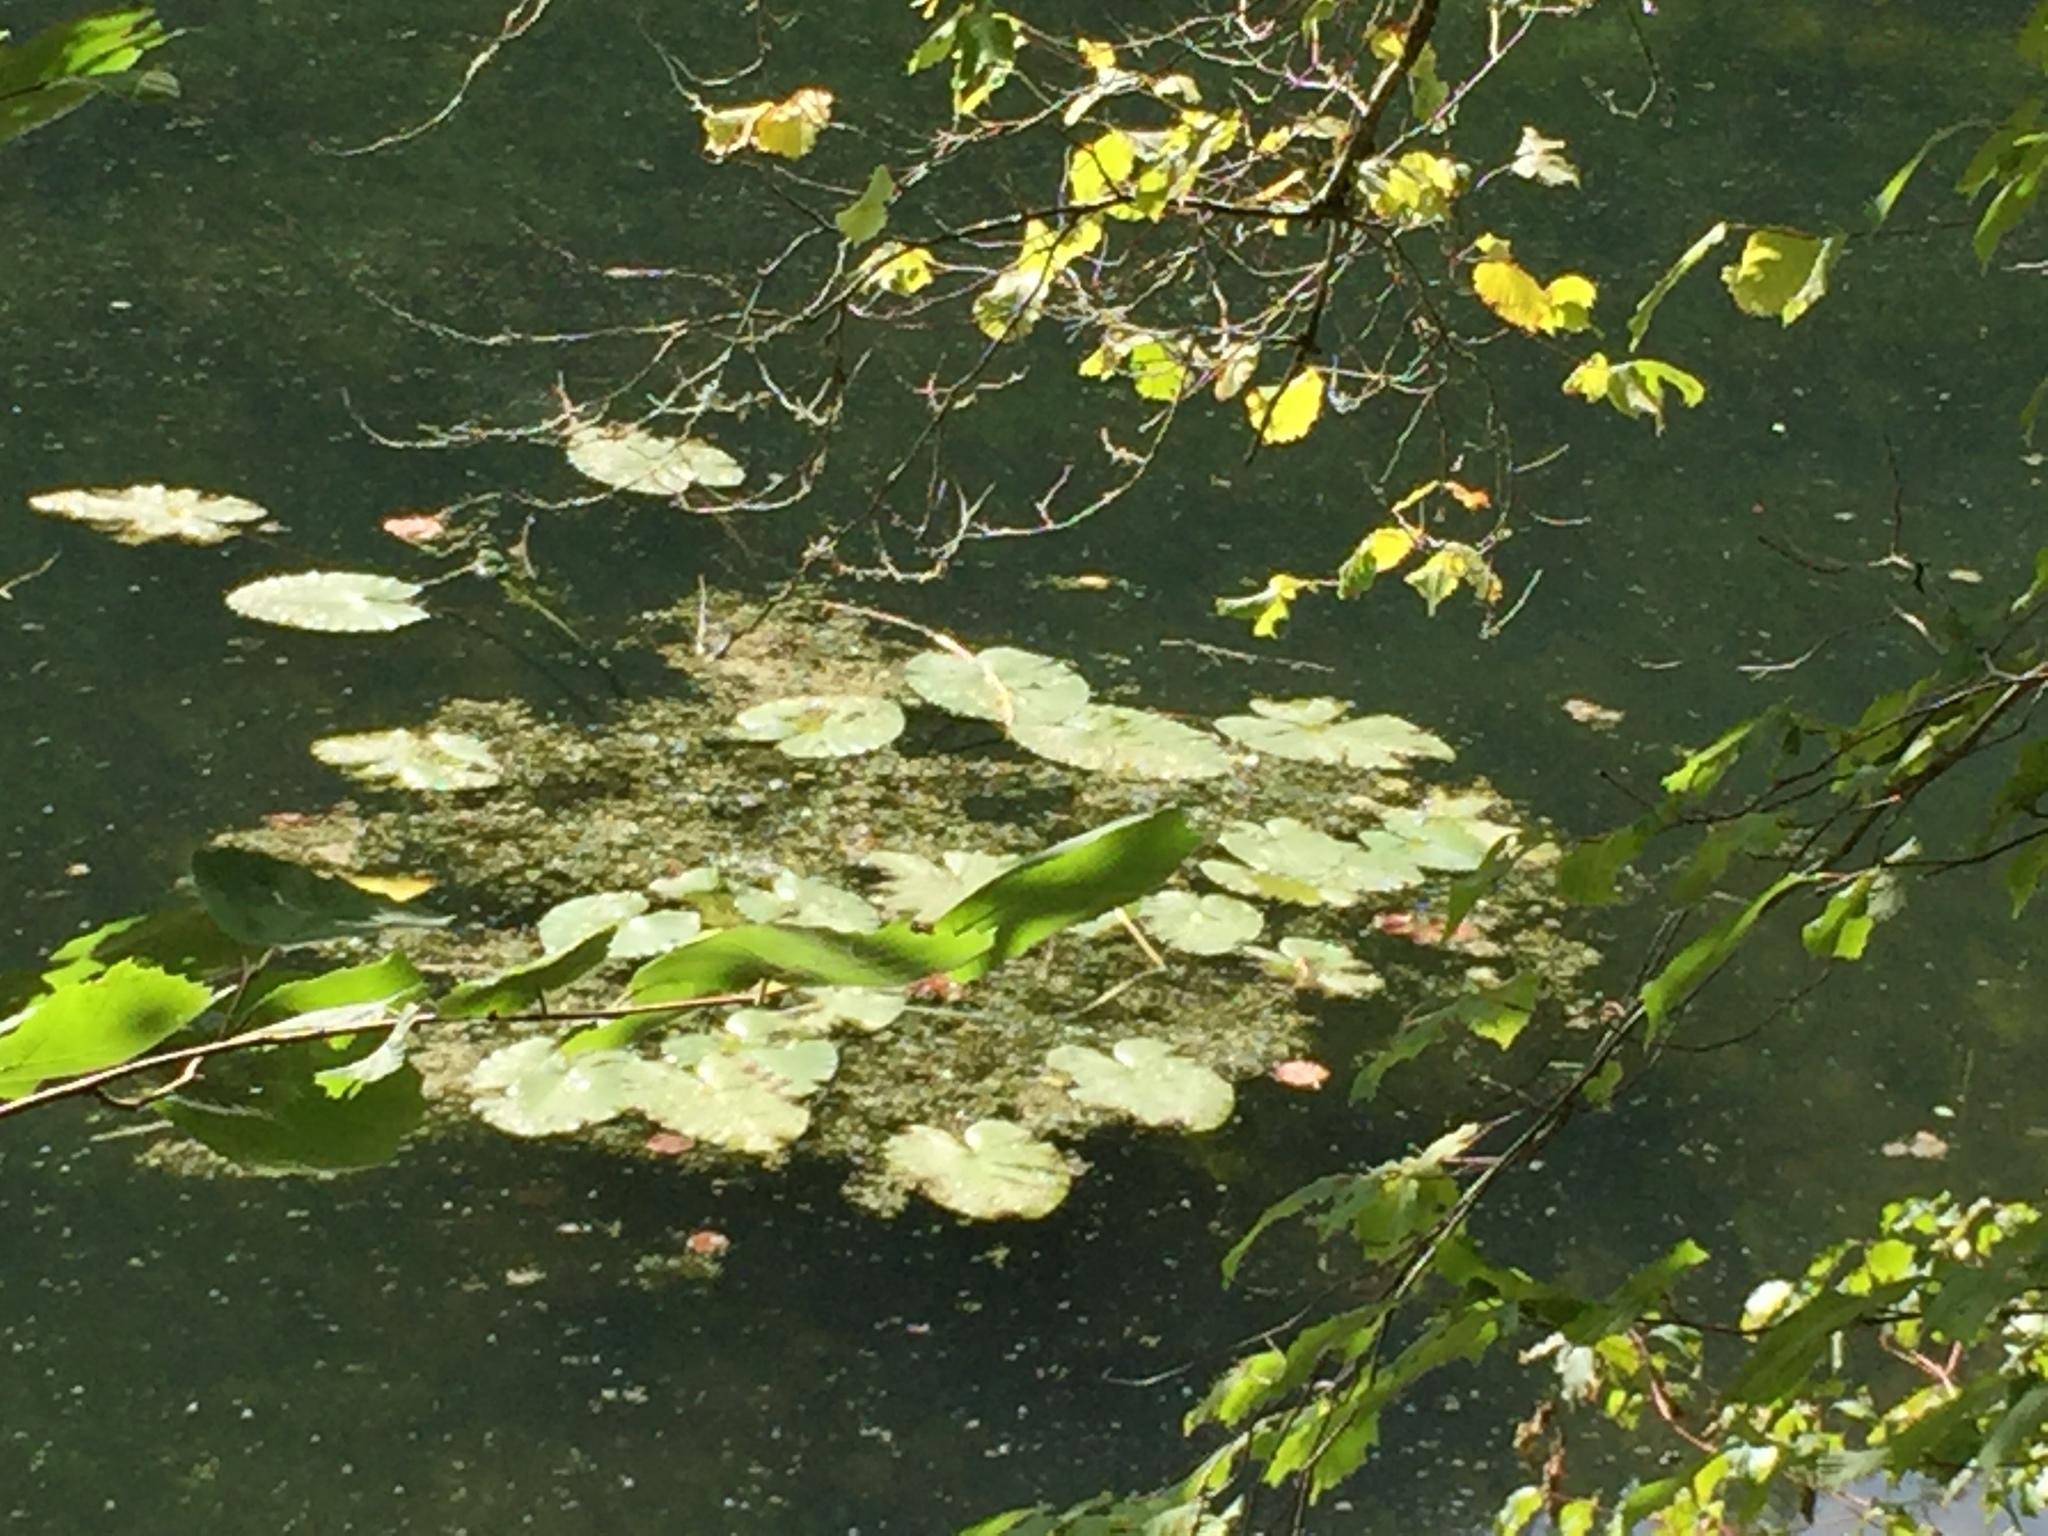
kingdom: Plantae
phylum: Tracheophyta
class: Magnoliopsida
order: Nymphaeales
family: Nymphaeaceae
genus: Nuphar
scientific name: Nuphar lutea
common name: Yellow water-lily
